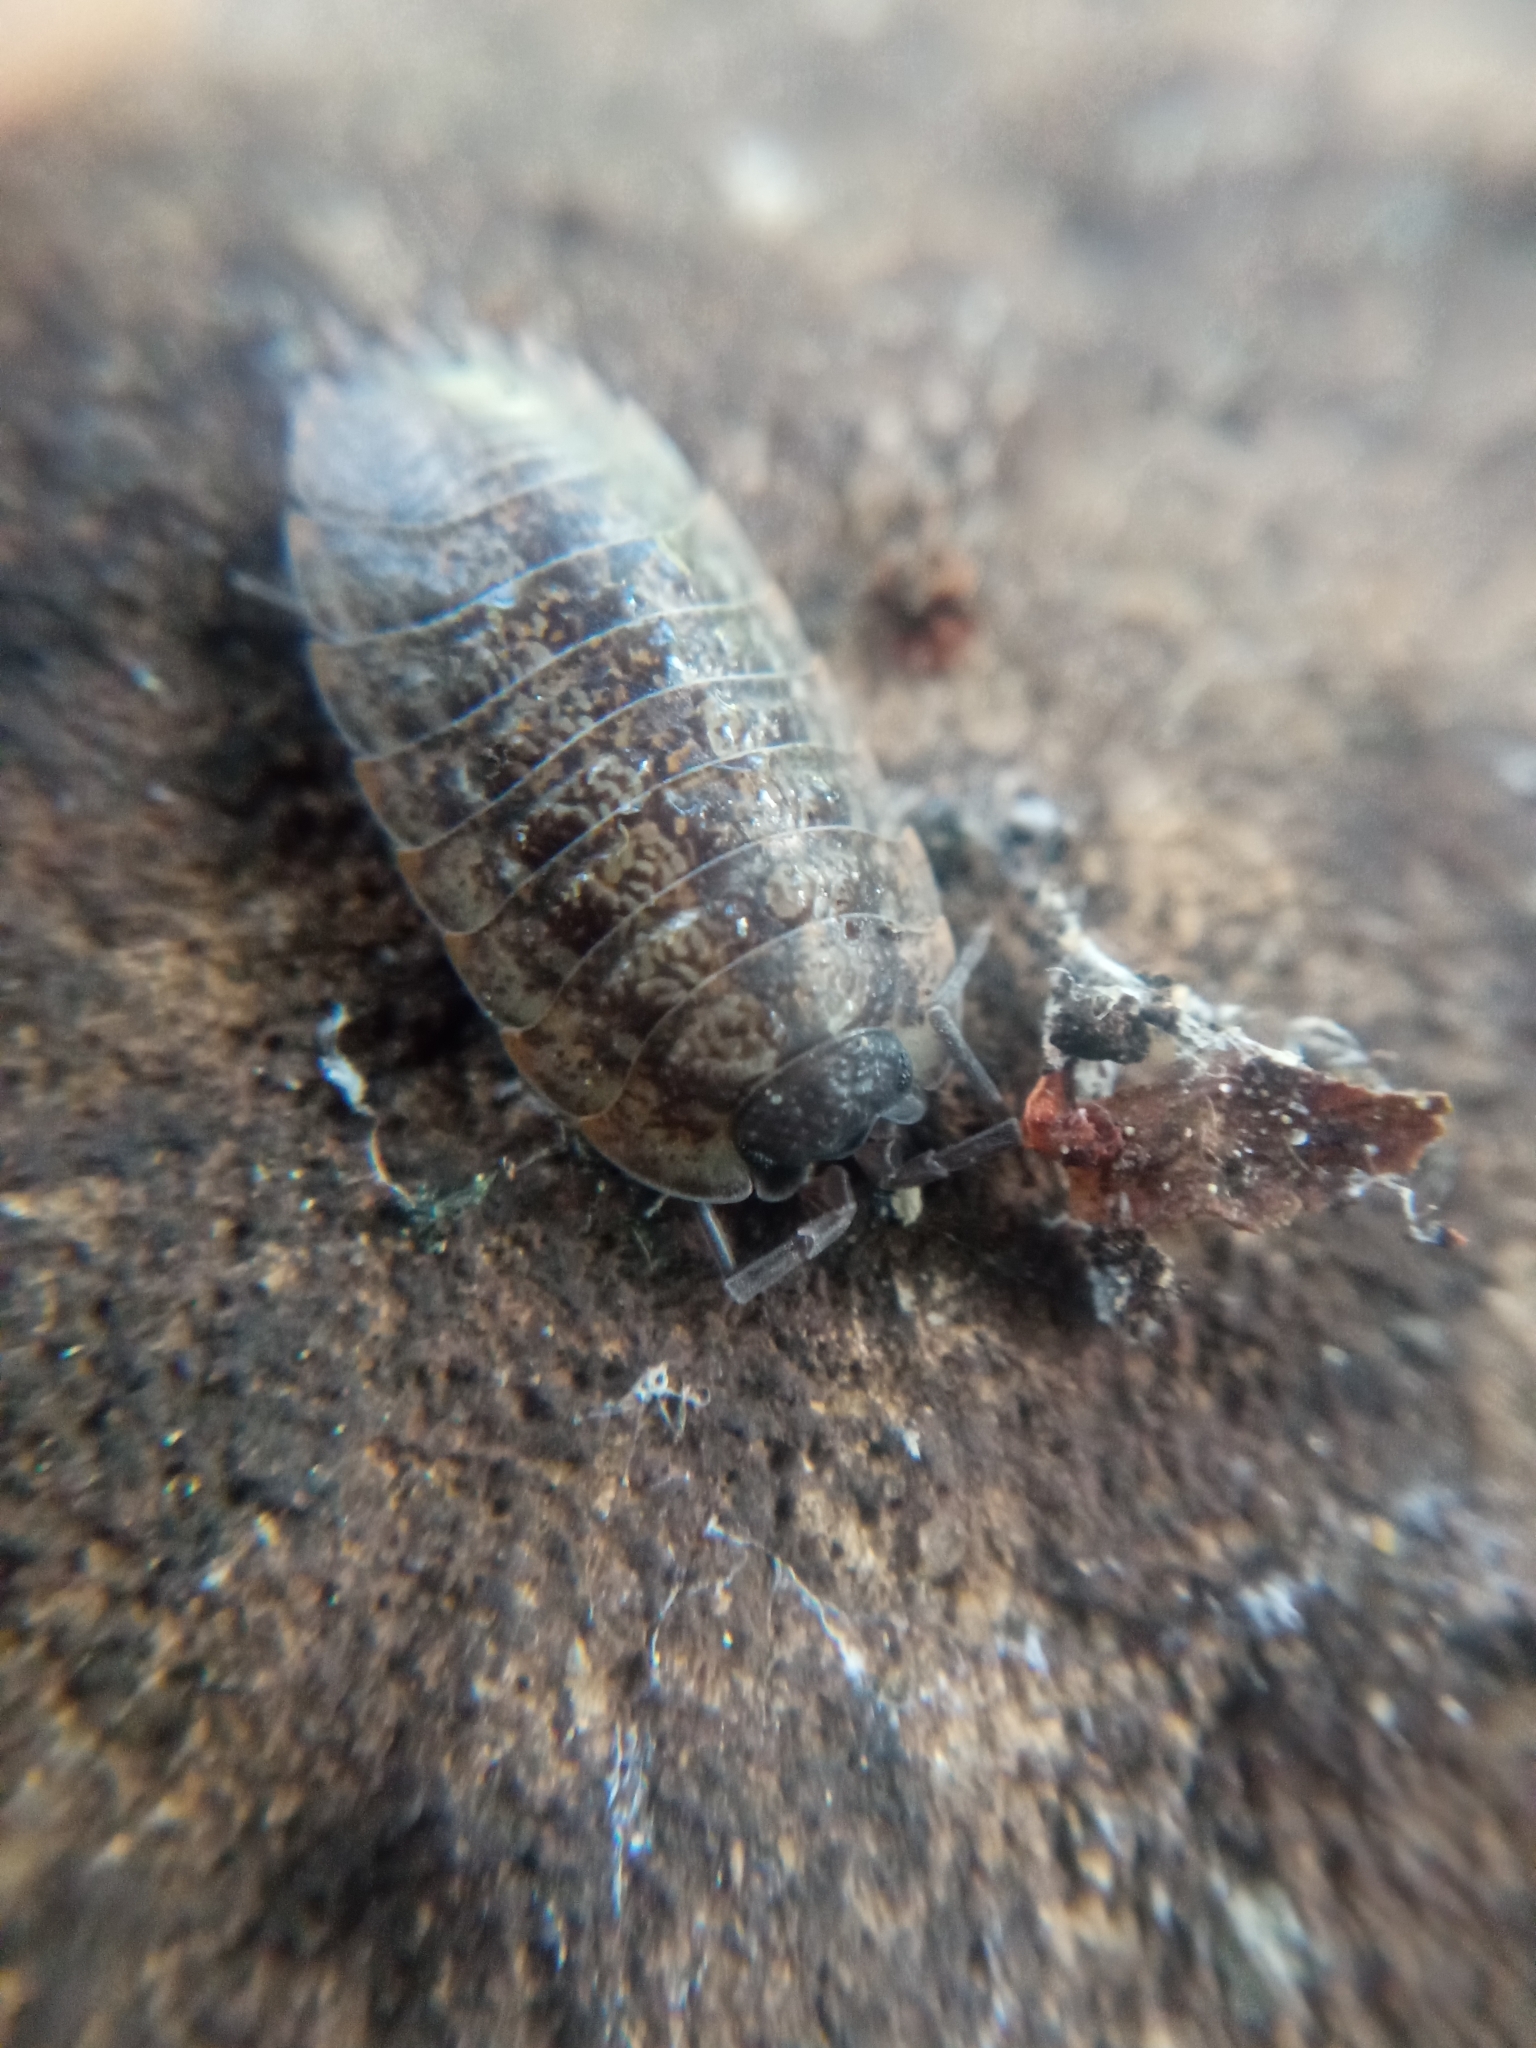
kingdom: Animalia
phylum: Arthropoda
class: Malacostraca
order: Isopoda
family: Porcellionidae
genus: Porcellio
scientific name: Porcellio montanus
